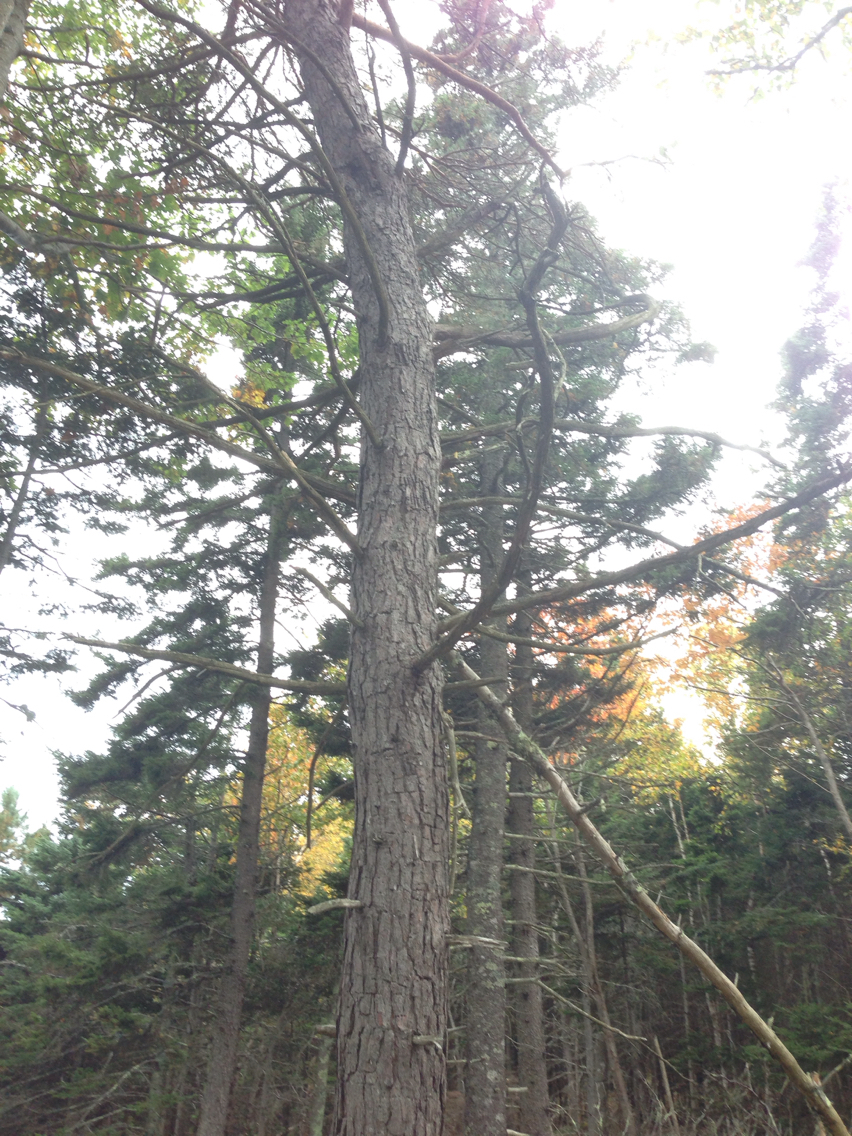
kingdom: Plantae
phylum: Tracheophyta
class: Pinopsida
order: Pinales
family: Pinaceae
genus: Pinus
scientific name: Pinus rigida
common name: Pitch pine
